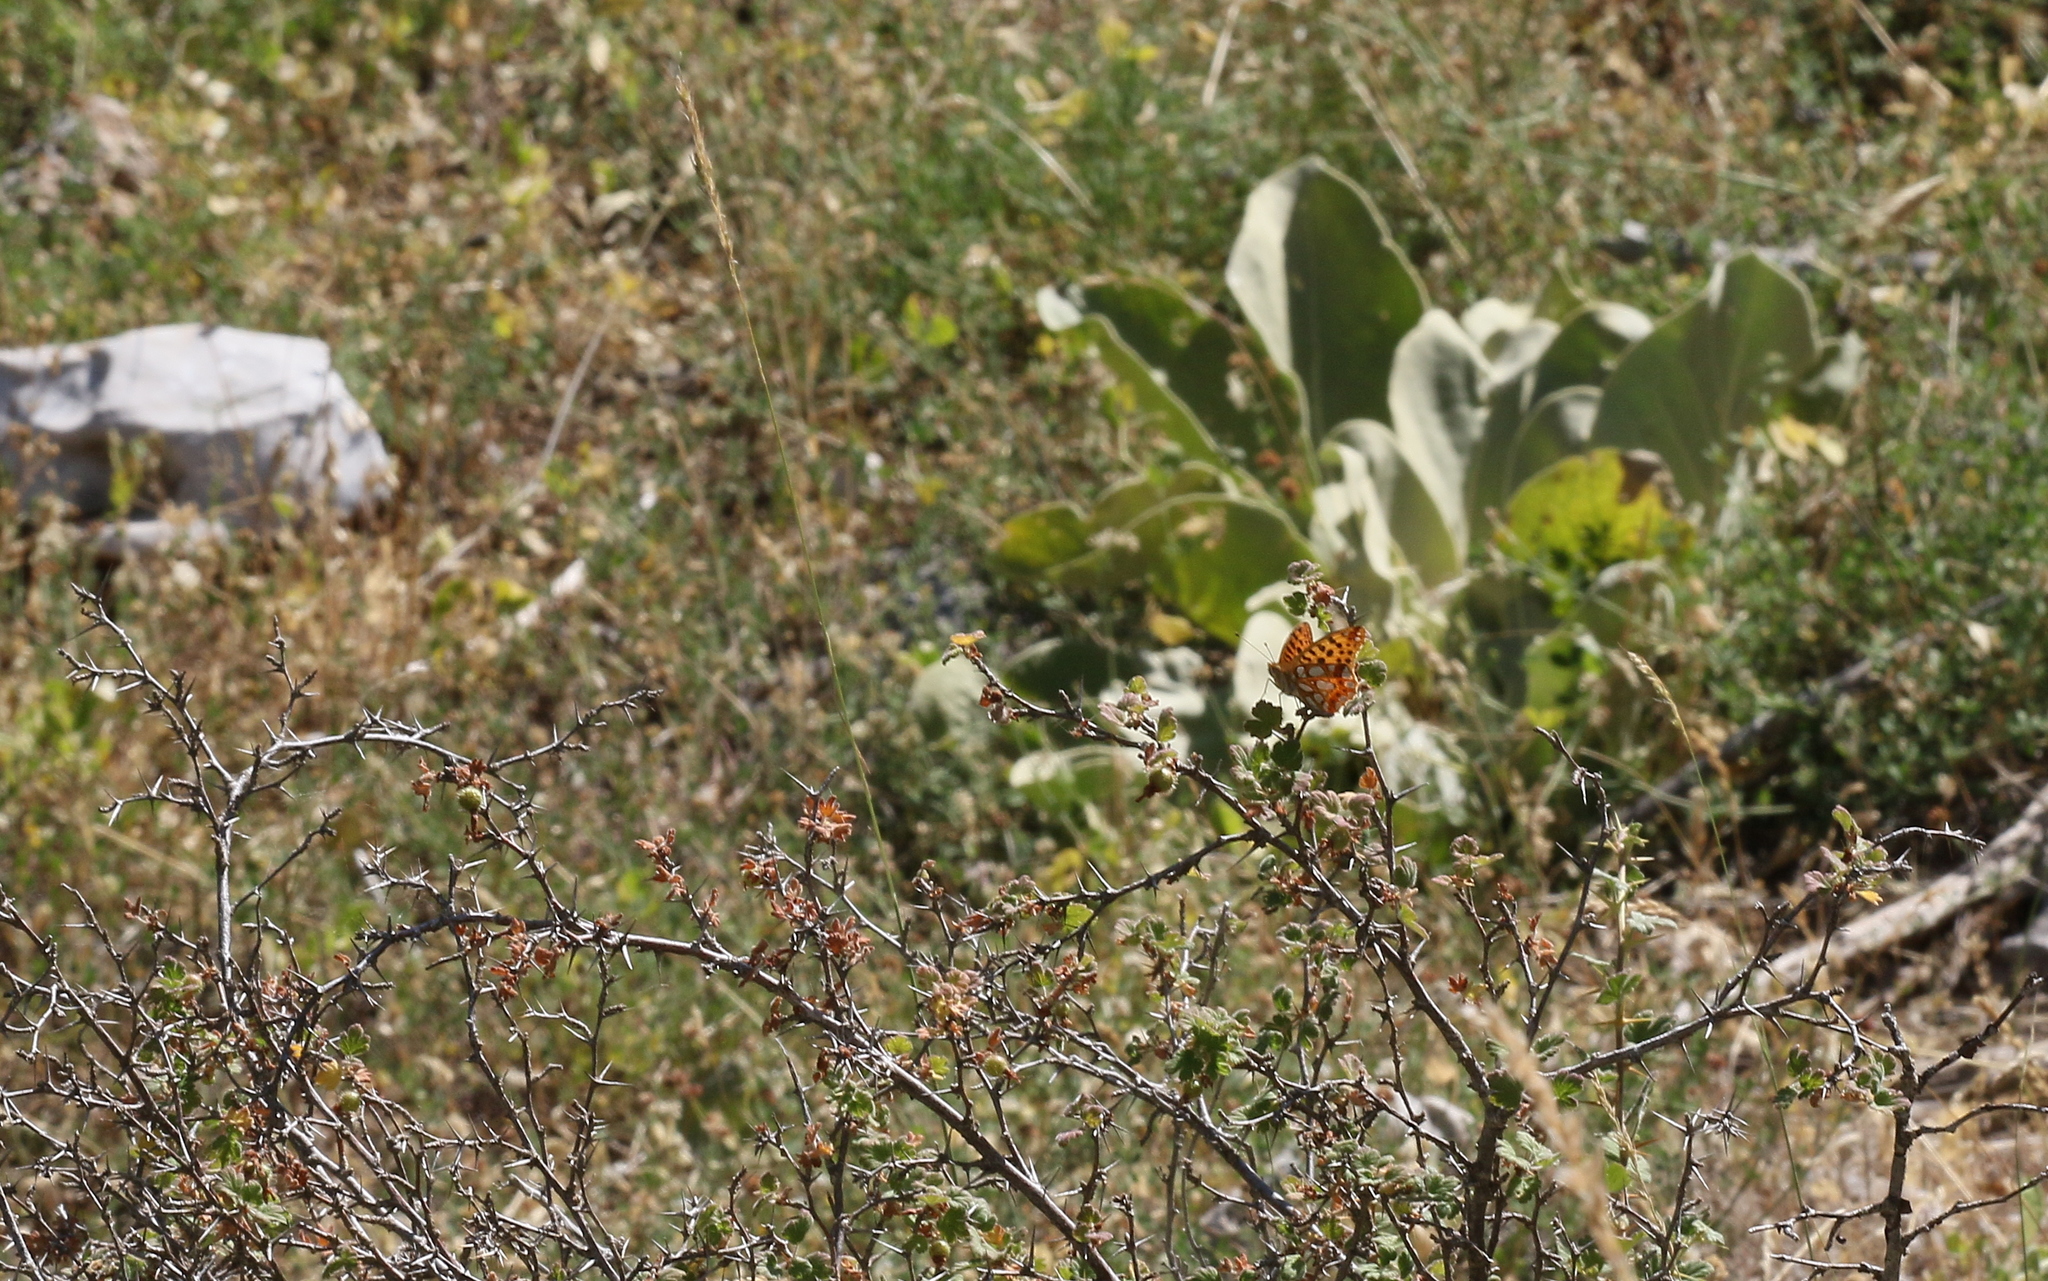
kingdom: Animalia
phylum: Arthropoda
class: Insecta
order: Lepidoptera
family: Nymphalidae
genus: Issoria
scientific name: Issoria lathonia
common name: Queen of spain fritillary
